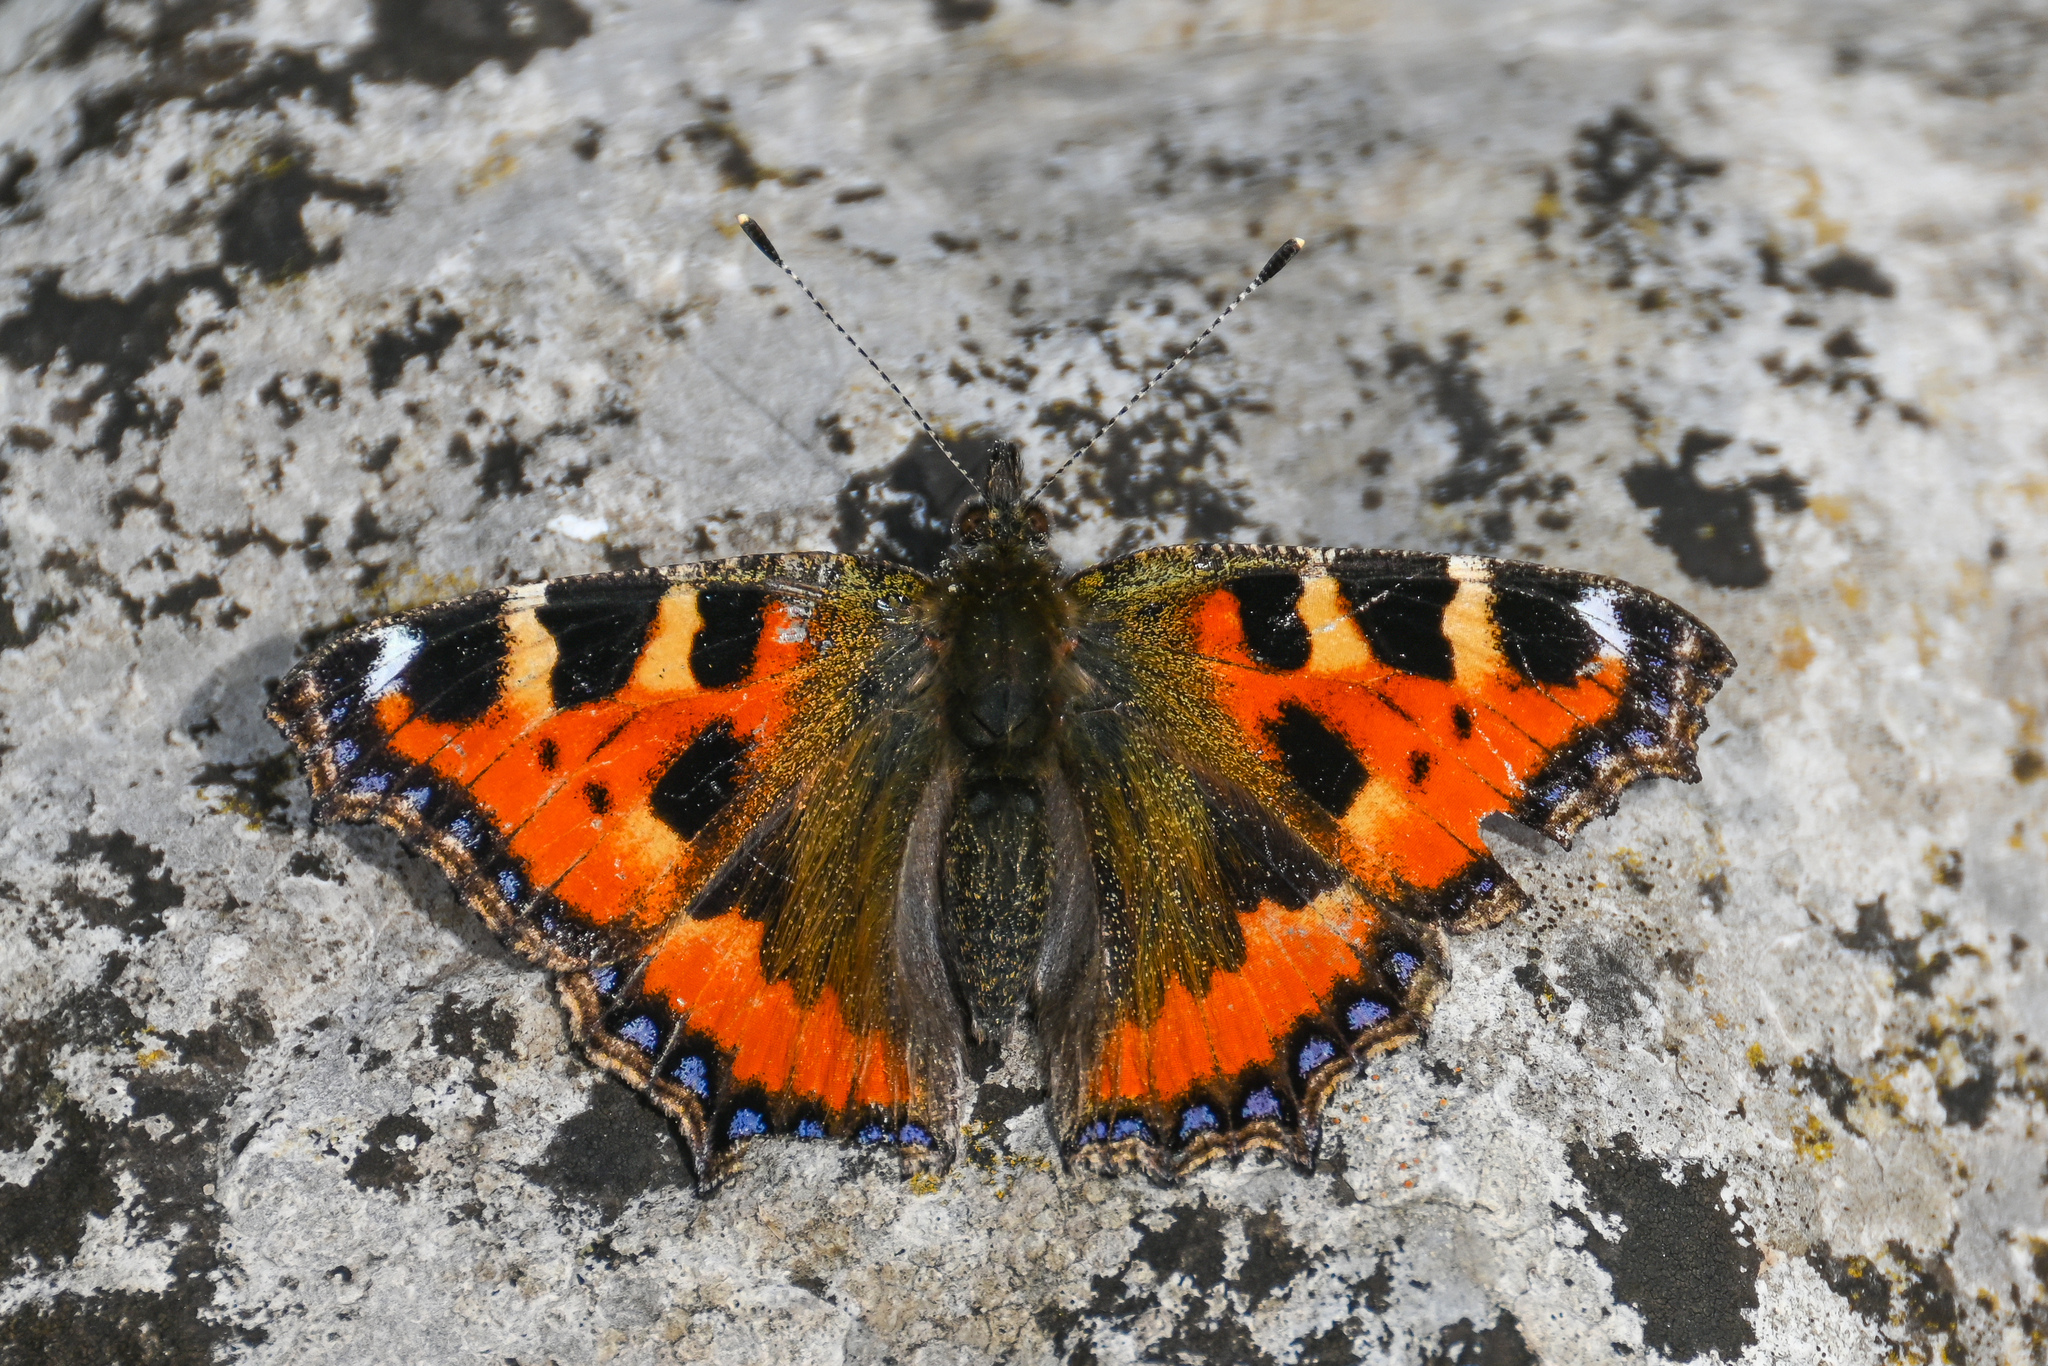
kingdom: Animalia
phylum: Arthropoda
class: Insecta
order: Lepidoptera
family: Nymphalidae
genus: Aglais
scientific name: Aglais urticae
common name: Small tortoiseshell
